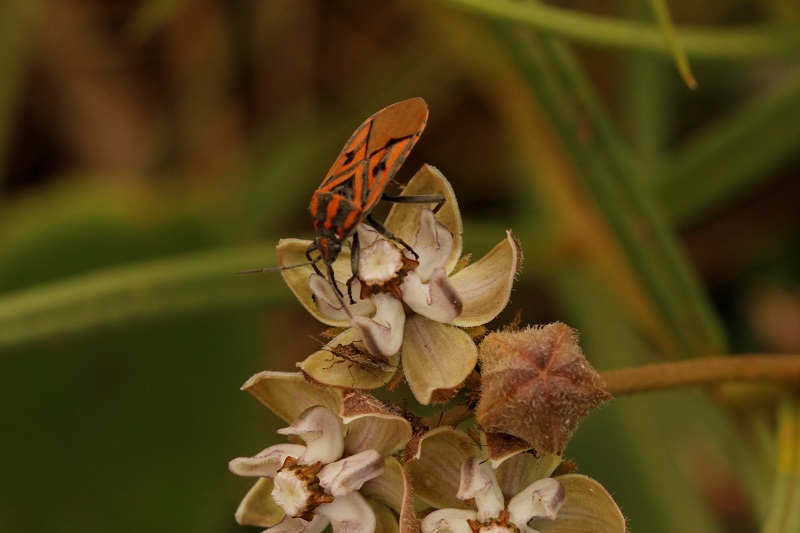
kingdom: Animalia
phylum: Arthropoda
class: Insecta
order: Hemiptera
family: Lygaeidae
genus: Spilostethus
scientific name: Spilostethus rivularis
